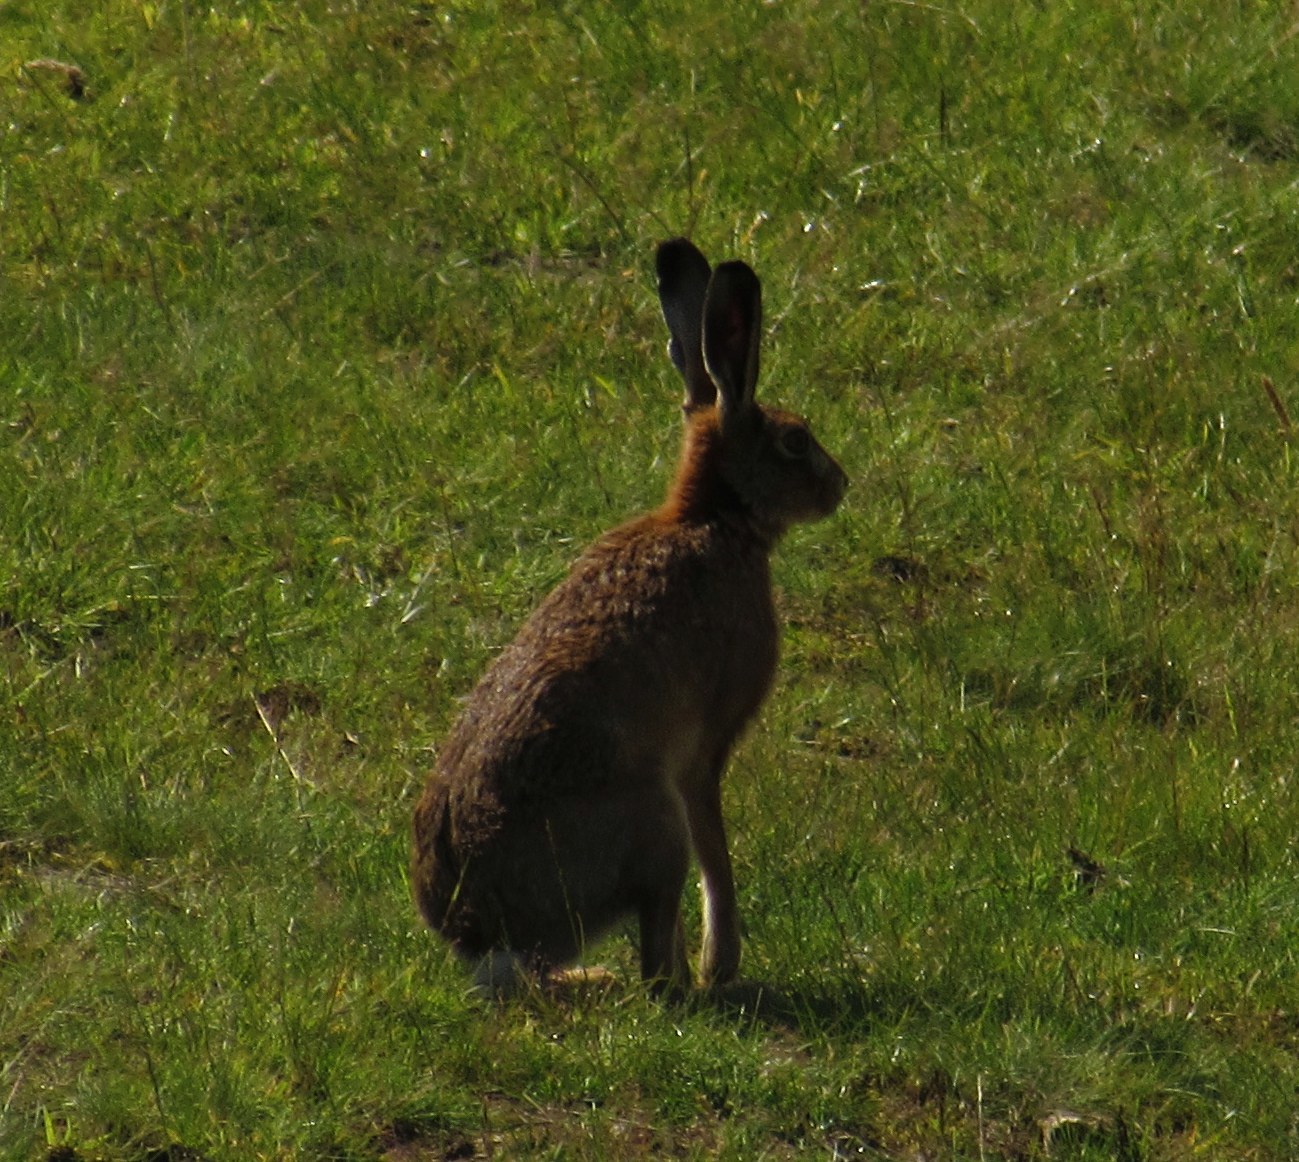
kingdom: Animalia
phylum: Chordata
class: Mammalia
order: Lagomorpha
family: Leporidae
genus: Lepus
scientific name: Lepus europaeus
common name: European hare
